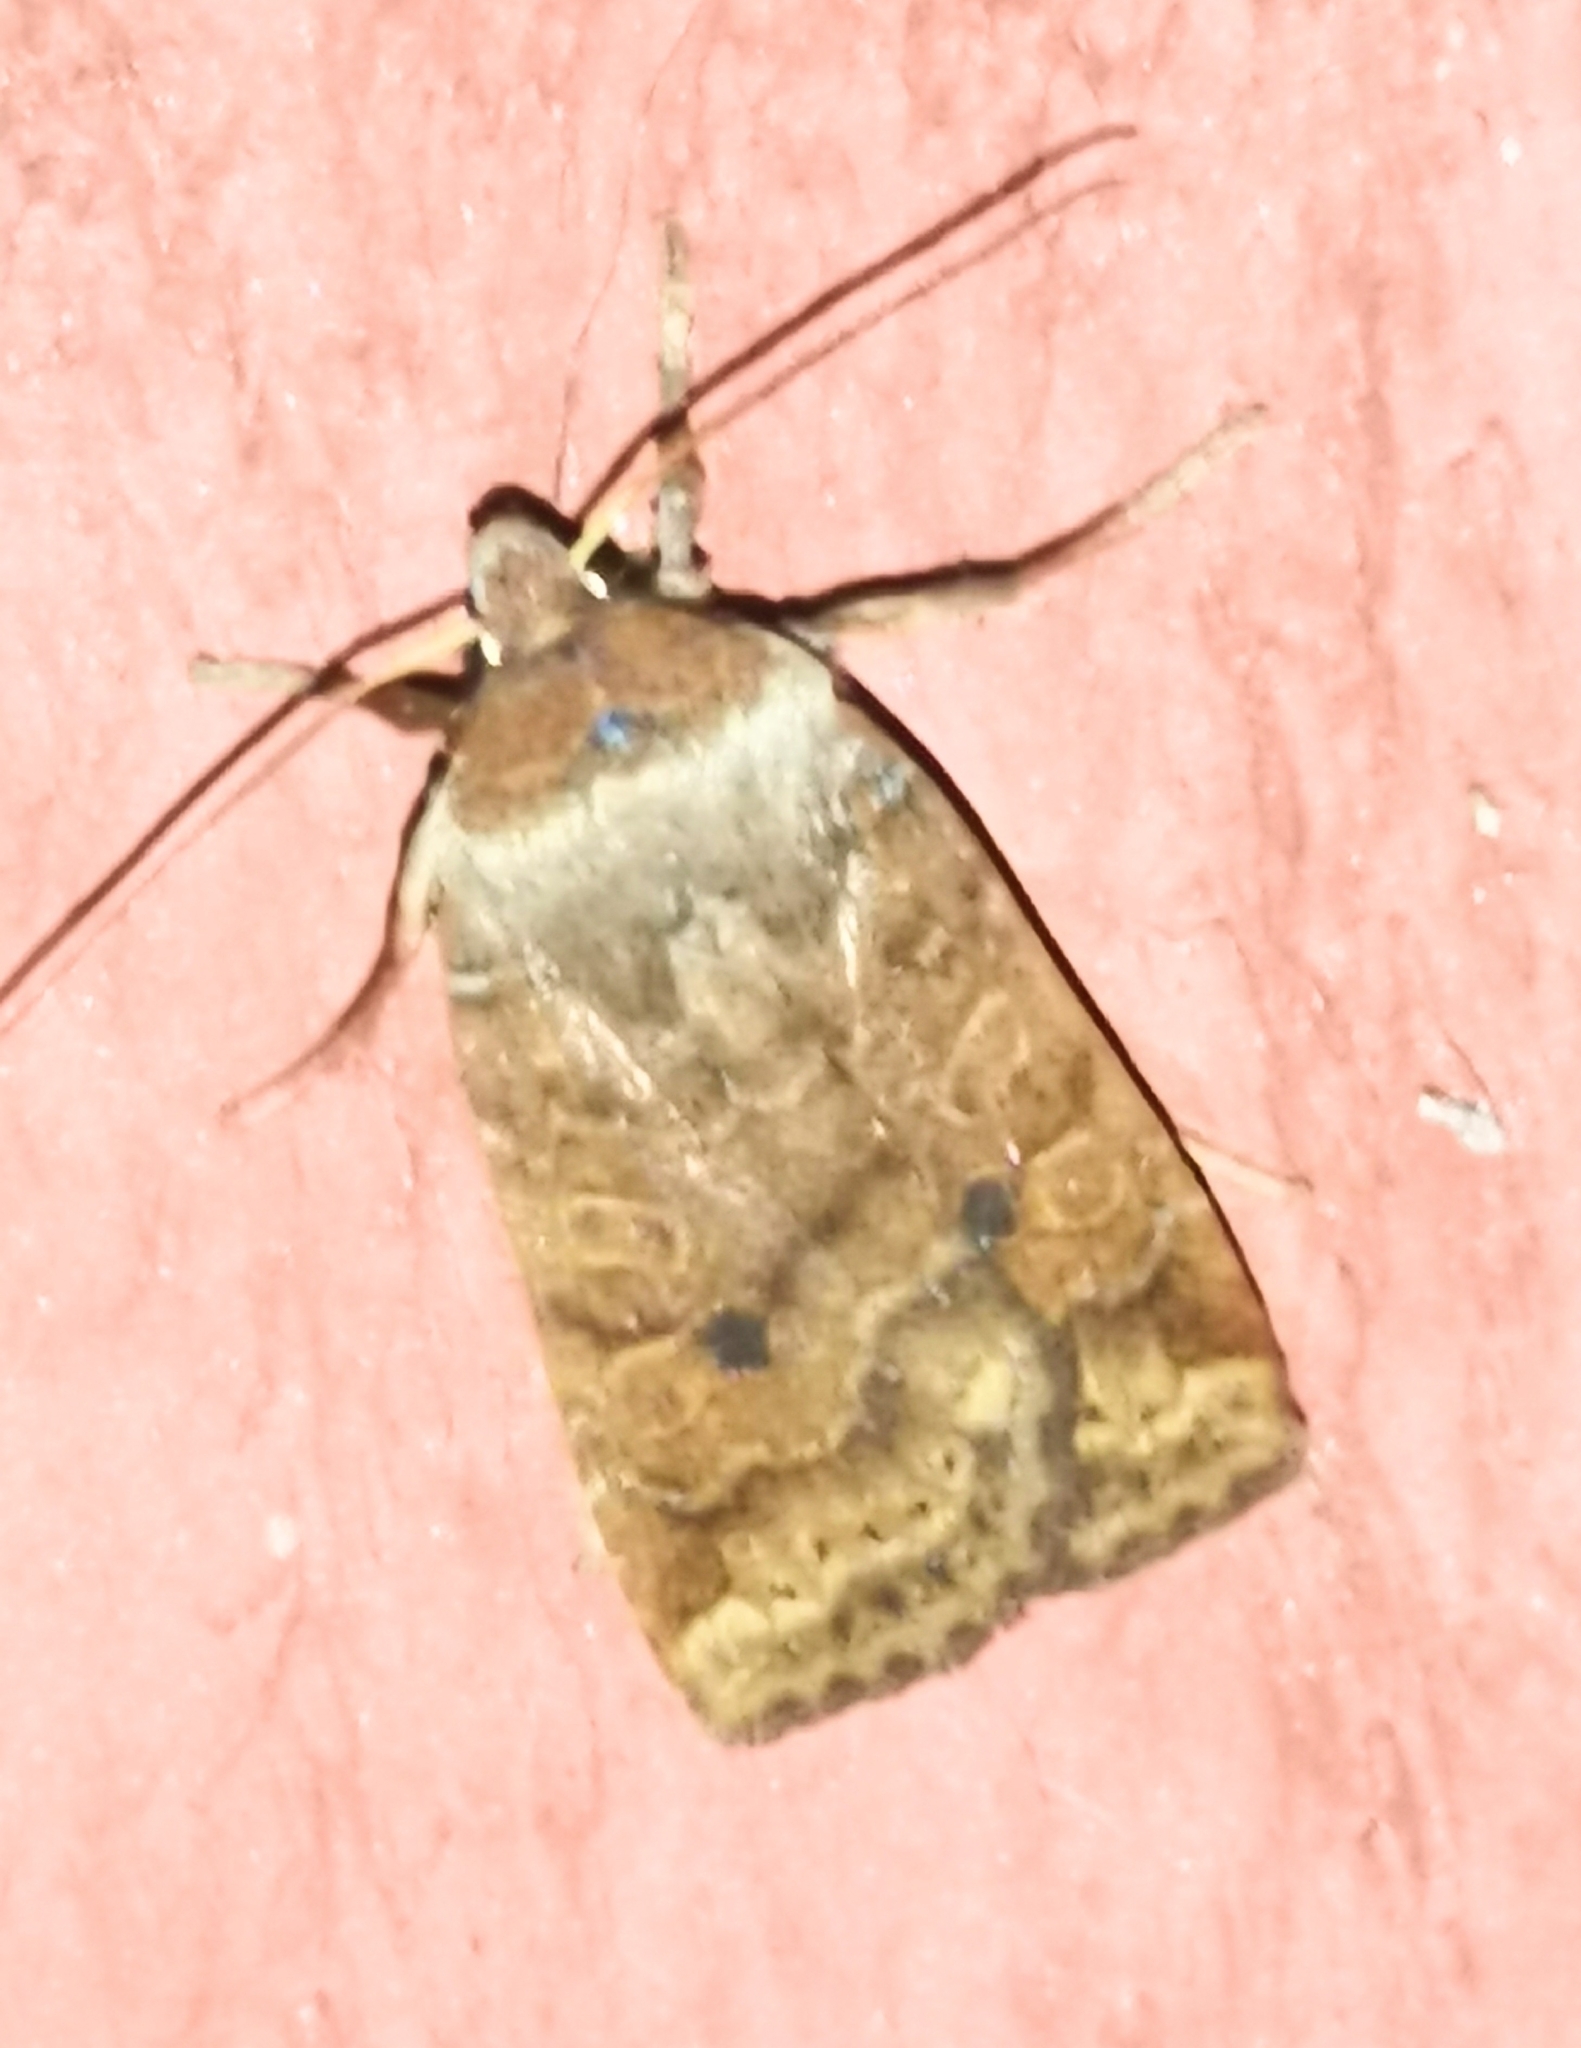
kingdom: Animalia
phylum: Arthropoda
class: Insecta
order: Lepidoptera
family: Noctuidae
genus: Conistra
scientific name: Conistra vaccinii
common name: Chestnut
